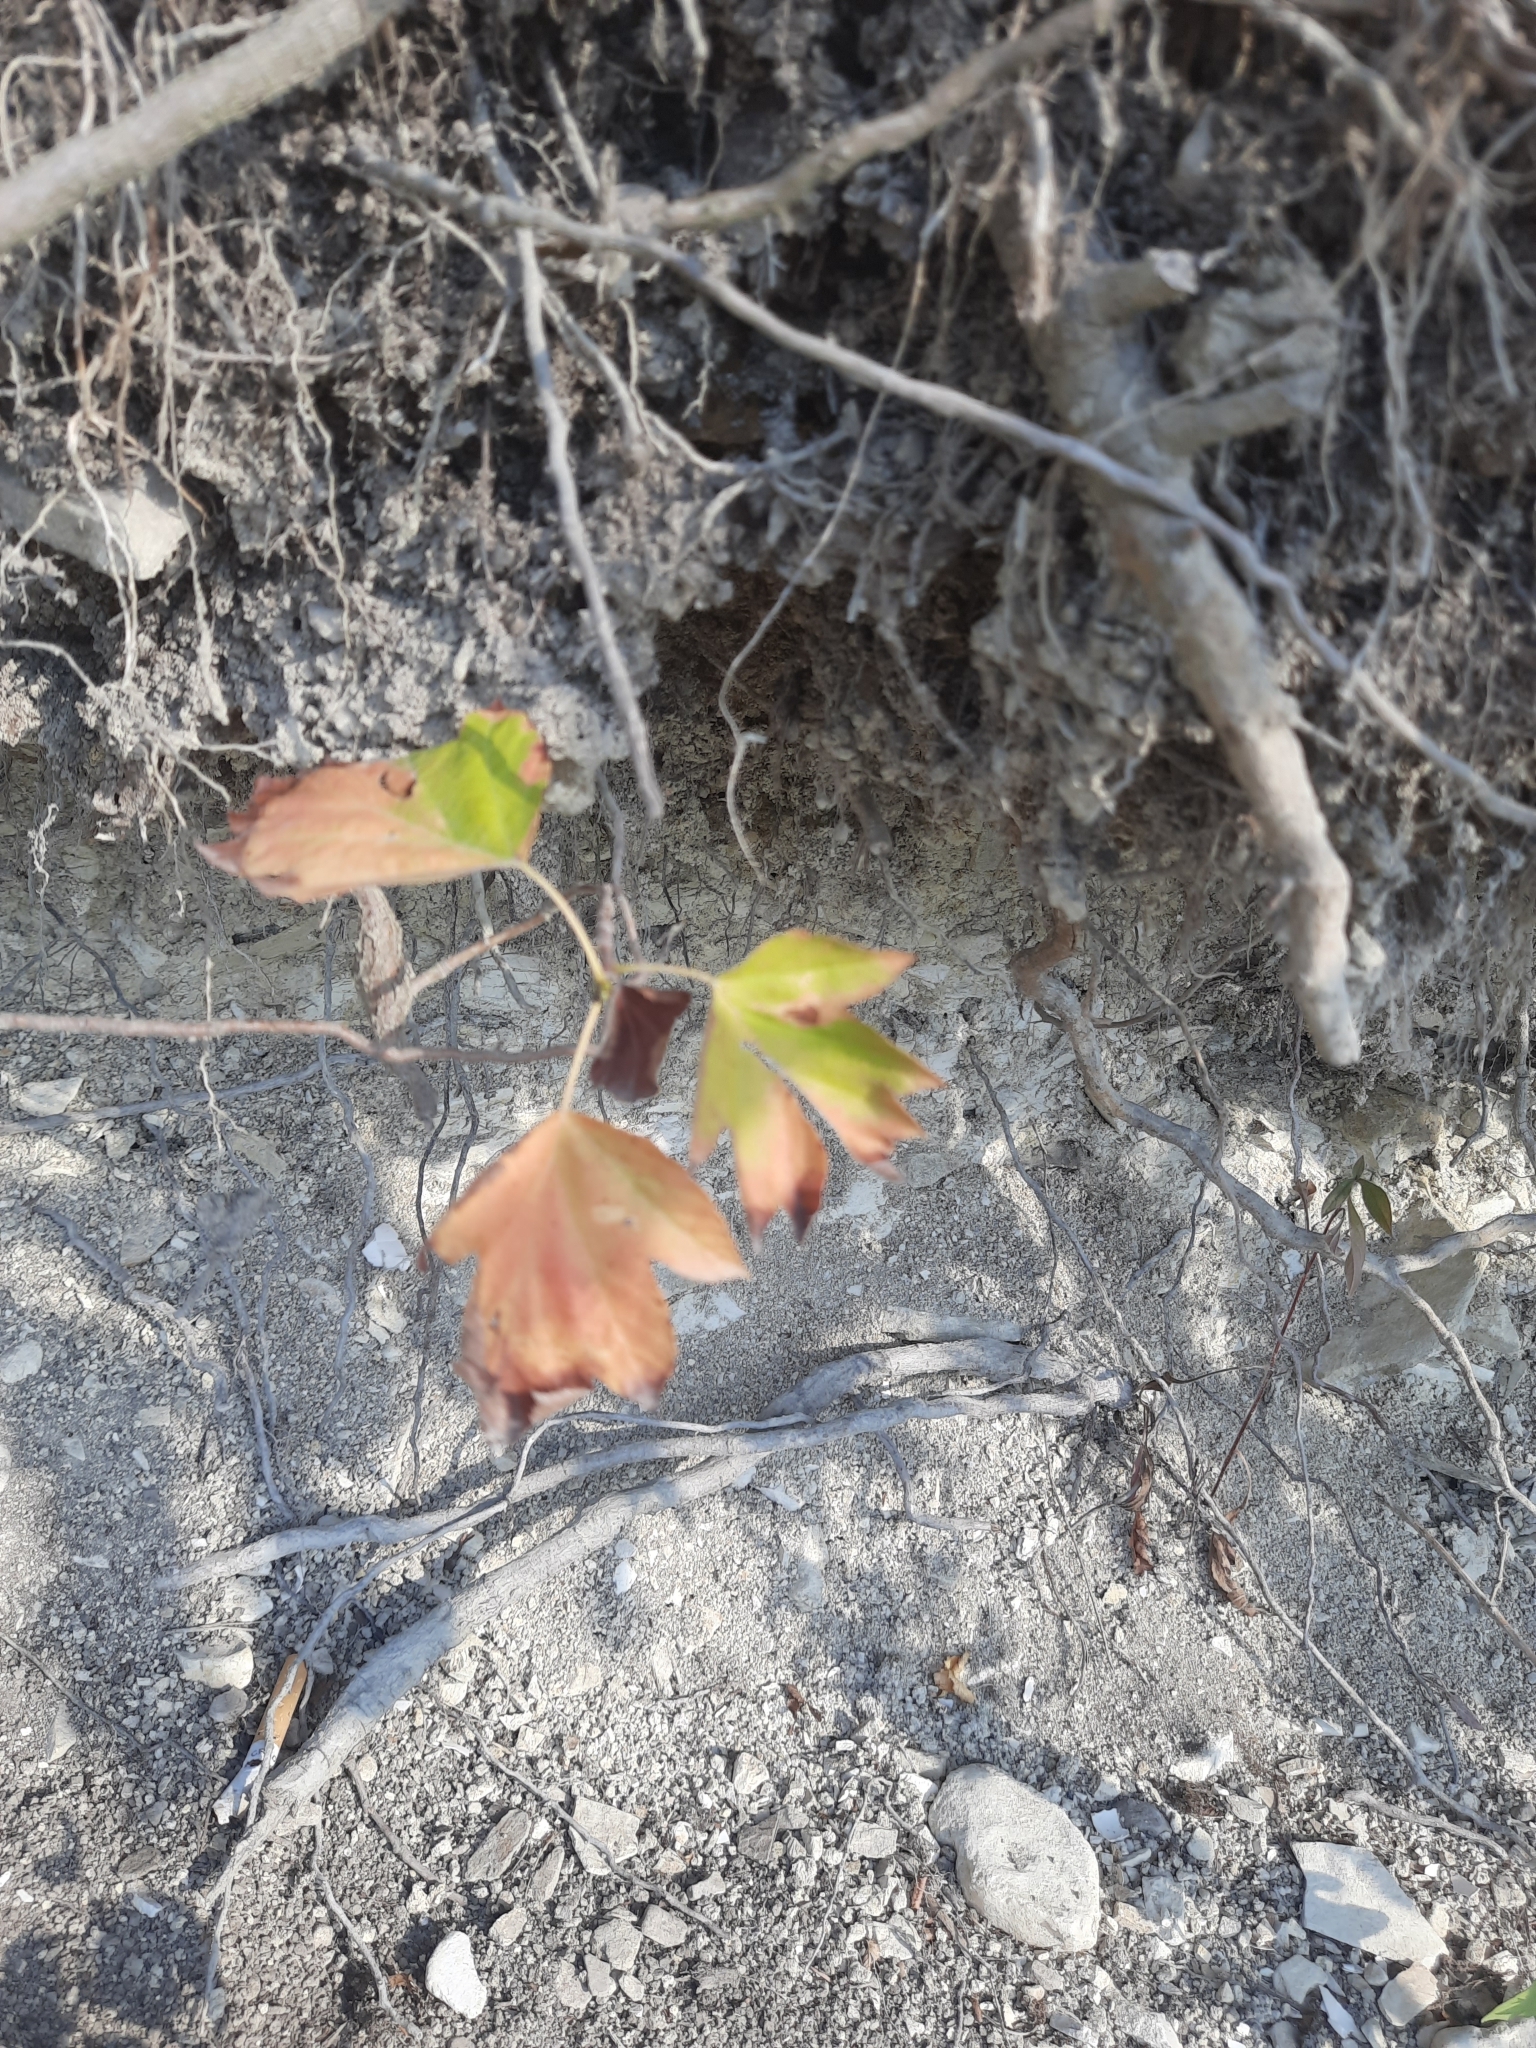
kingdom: Plantae
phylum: Tracheophyta
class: Magnoliopsida
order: Rosales
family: Rosaceae
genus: Torminalis
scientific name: Torminalis glaberrima
